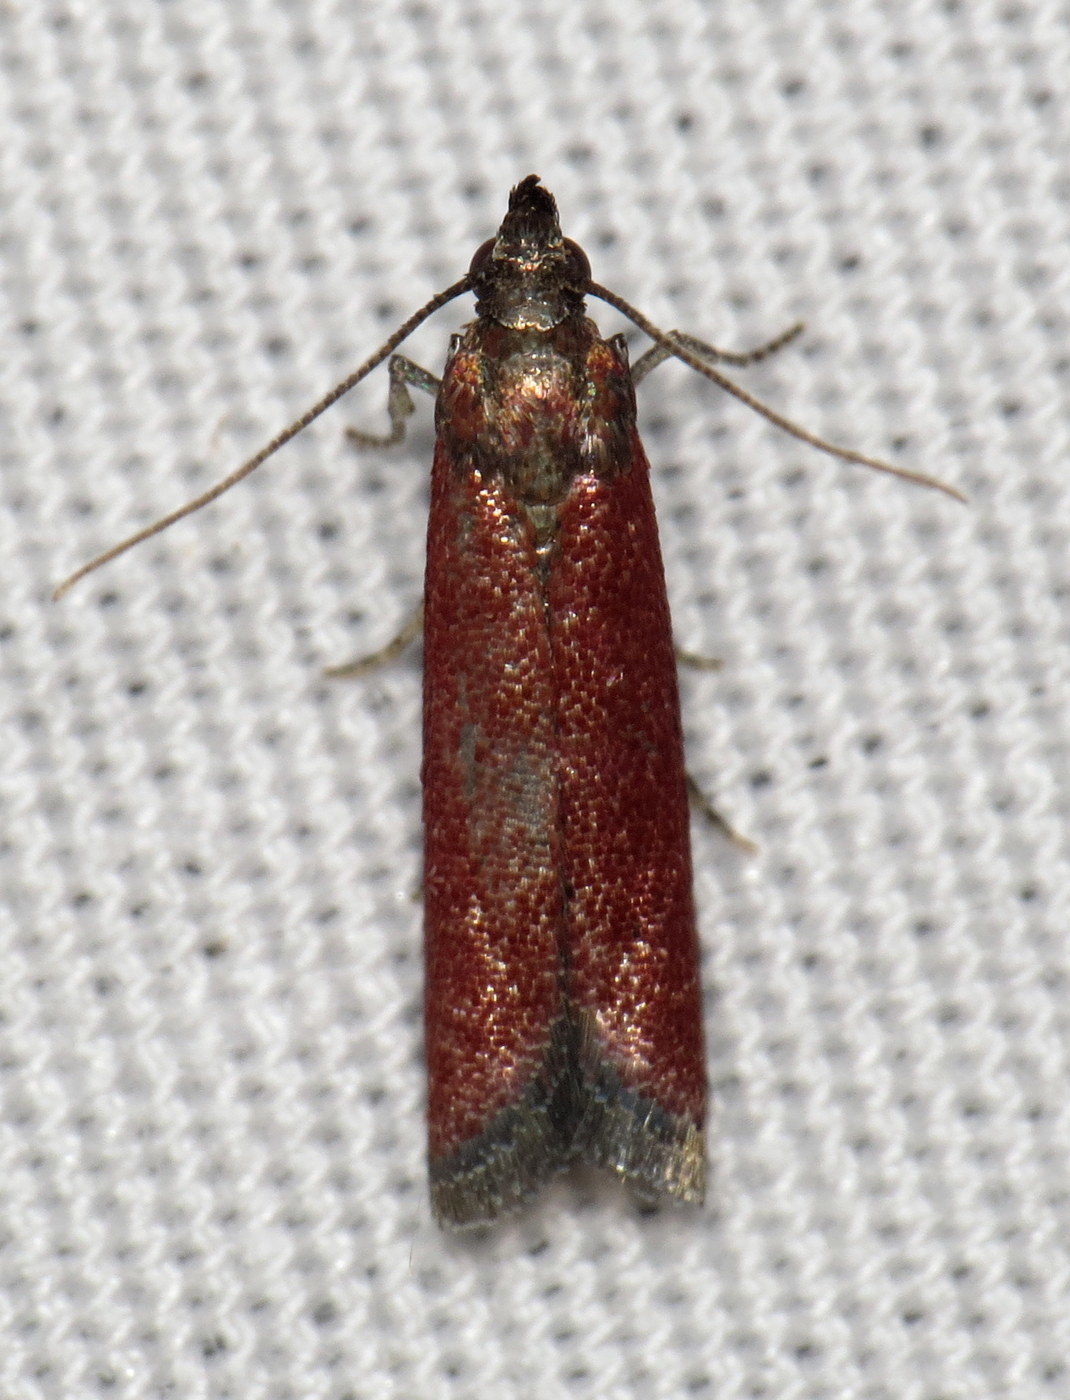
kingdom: Animalia
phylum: Arthropoda
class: Insecta
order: Lepidoptera
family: Pyralidae
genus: Varneria
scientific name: Varneria postremella
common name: Rusty varneria moth
